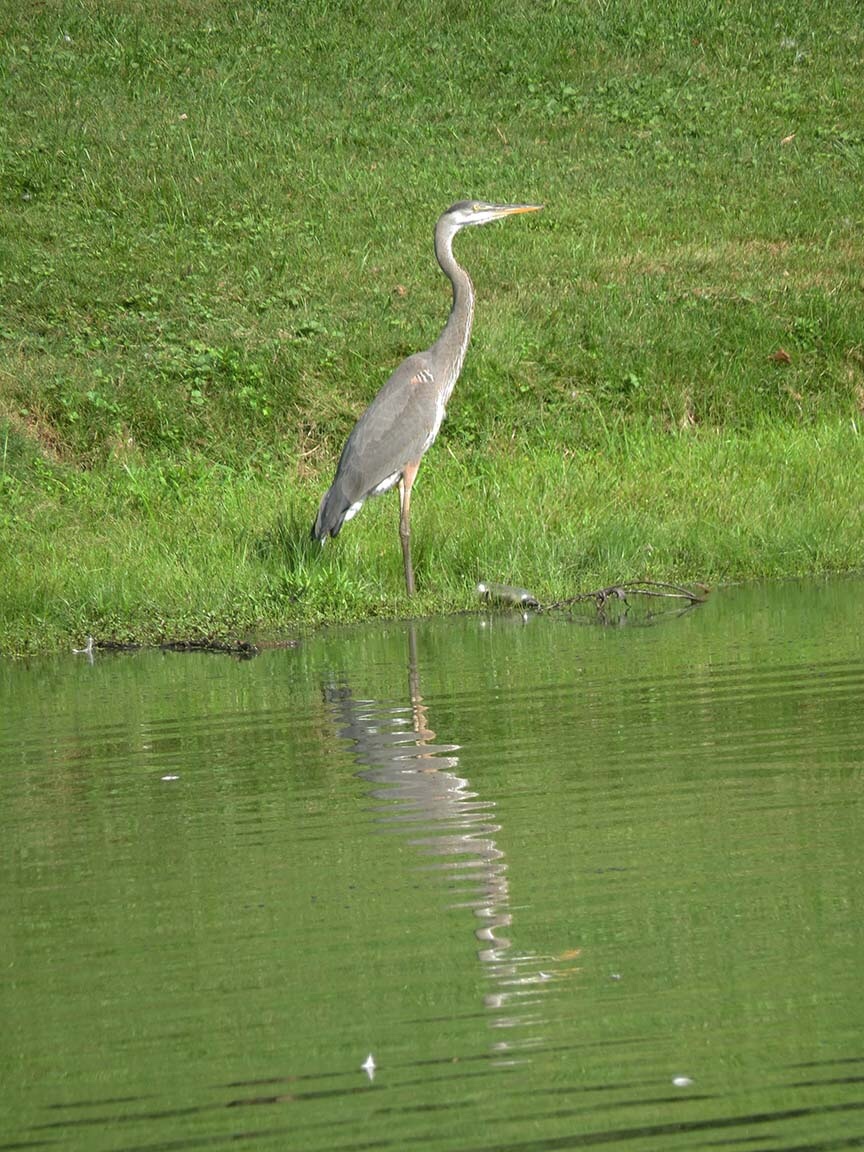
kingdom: Animalia
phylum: Chordata
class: Aves
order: Pelecaniformes
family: Ardeidae
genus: Ardea
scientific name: Ardea herodias
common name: Great blue heron
